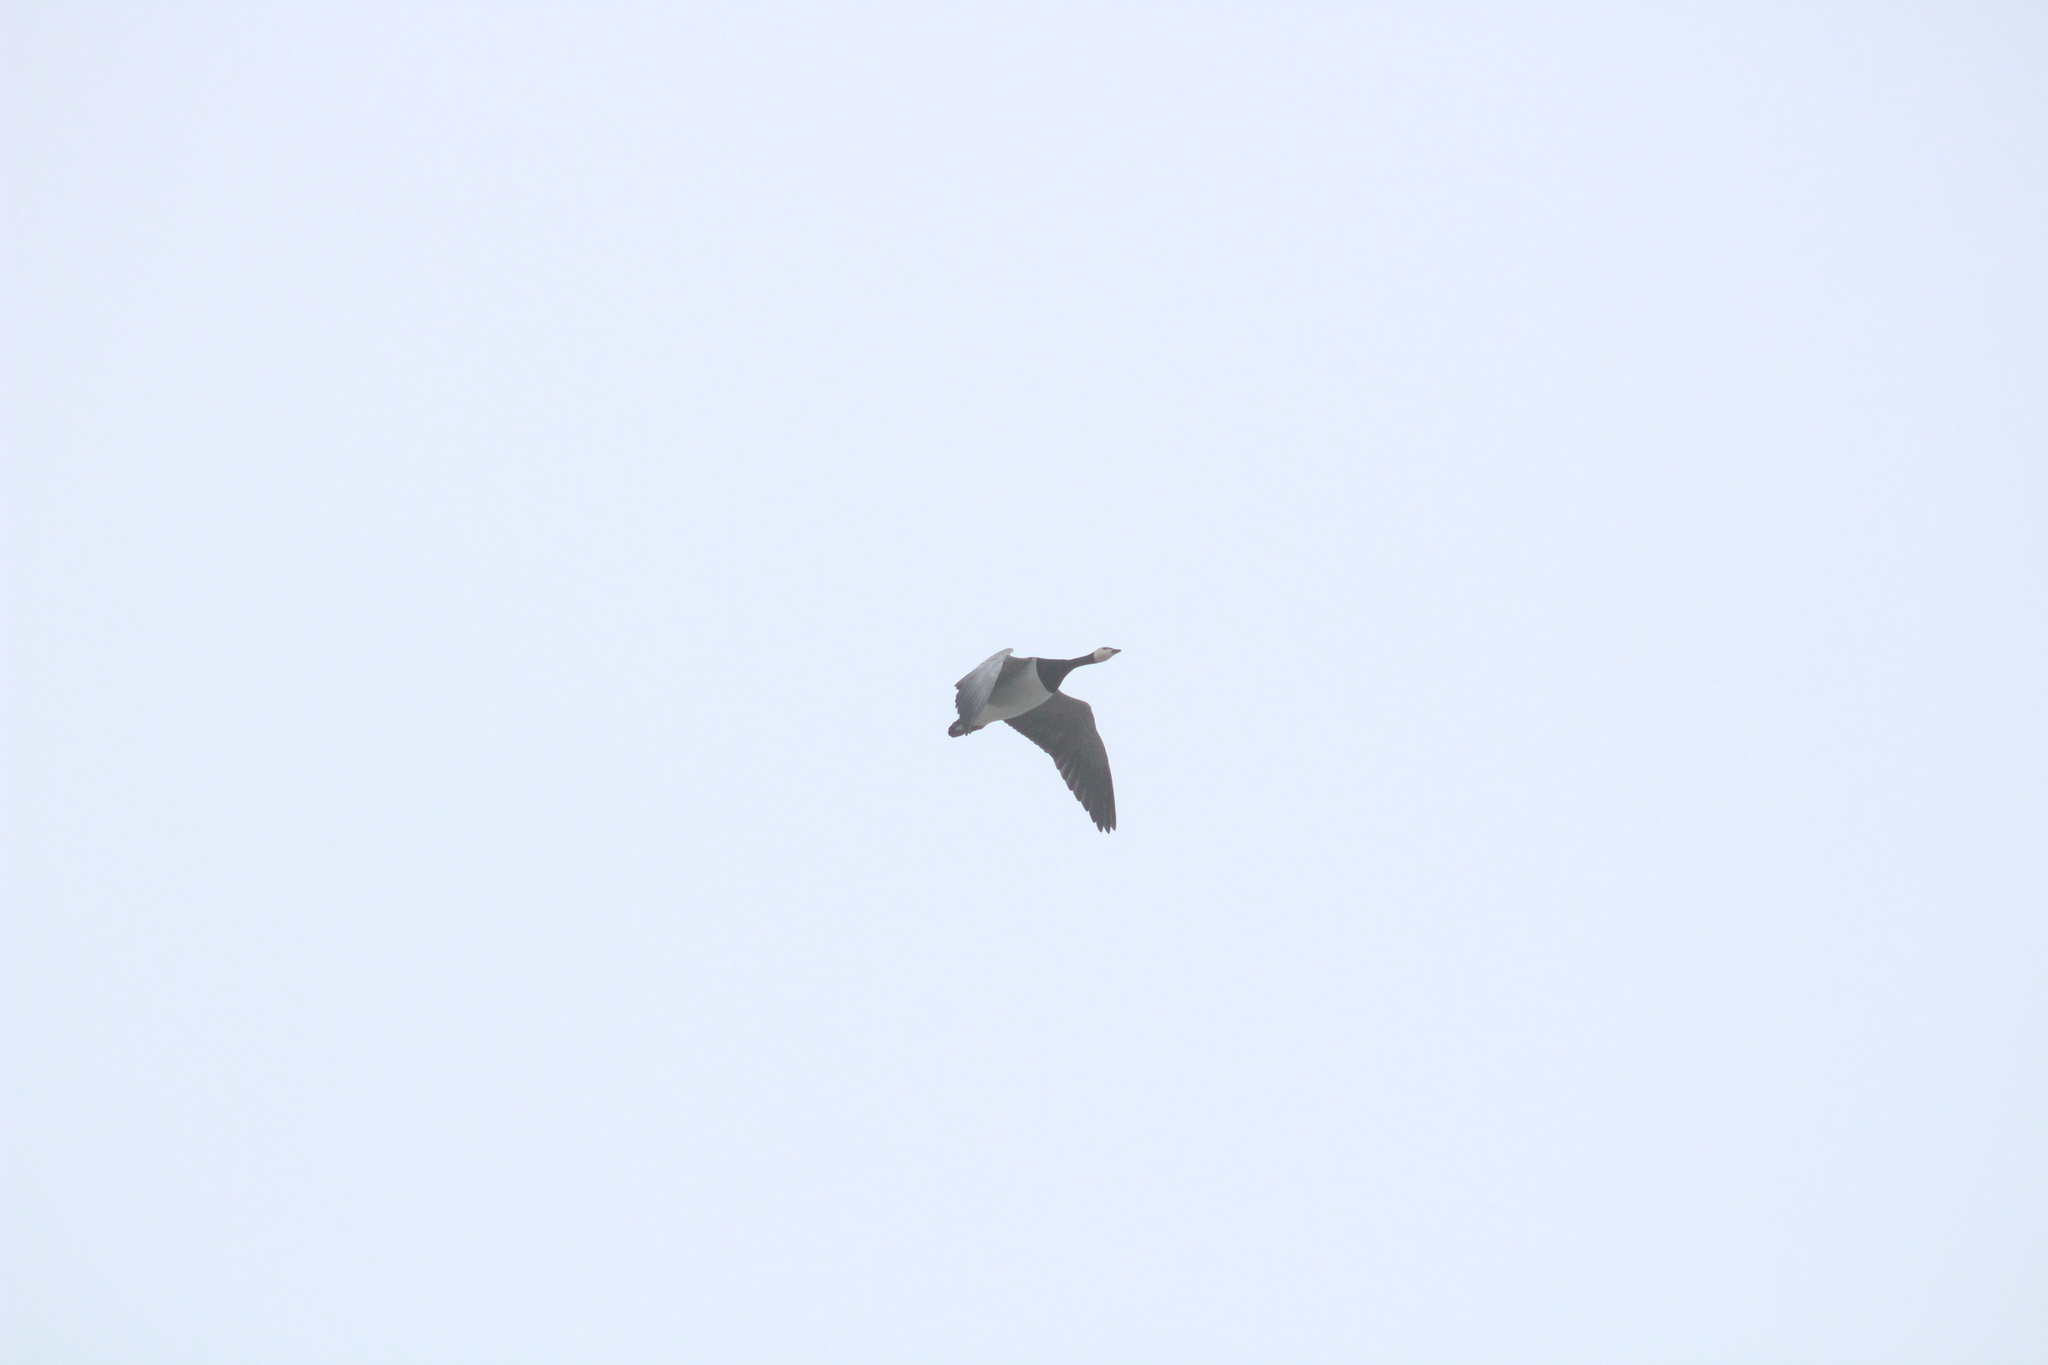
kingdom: Animalia
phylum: Chordata
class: Aves
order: Anseriformes
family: Anatidae
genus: Branta
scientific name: Branta leucopsis
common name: Barnacle goose
